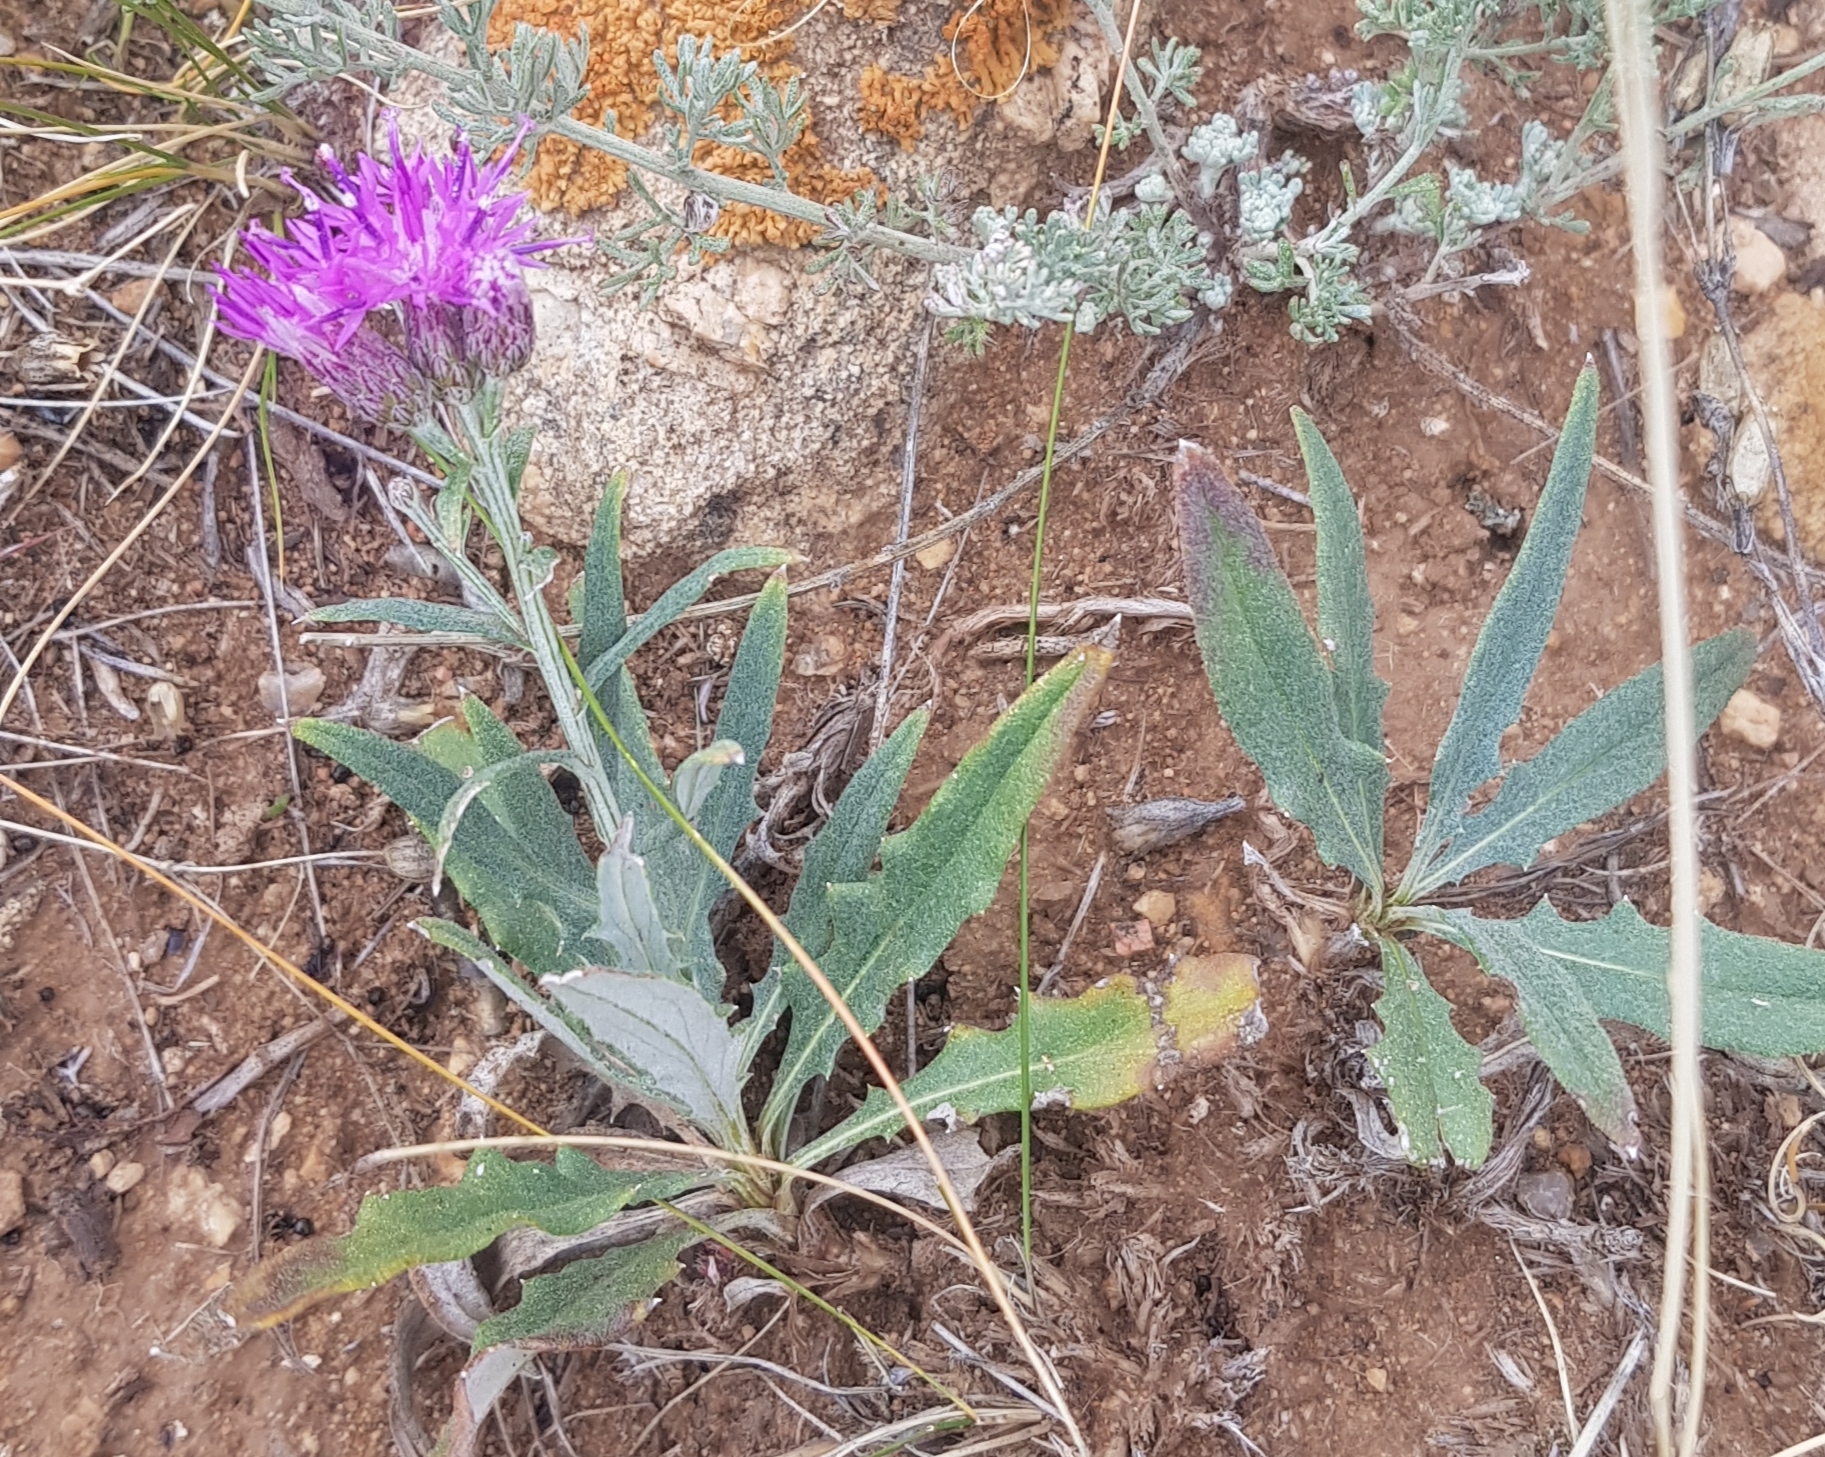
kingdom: Plantae
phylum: Tracheophyta
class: Magnoliopsida
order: Asterales
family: Asteraceae
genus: Saussurea
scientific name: Saussurea salicifolia
